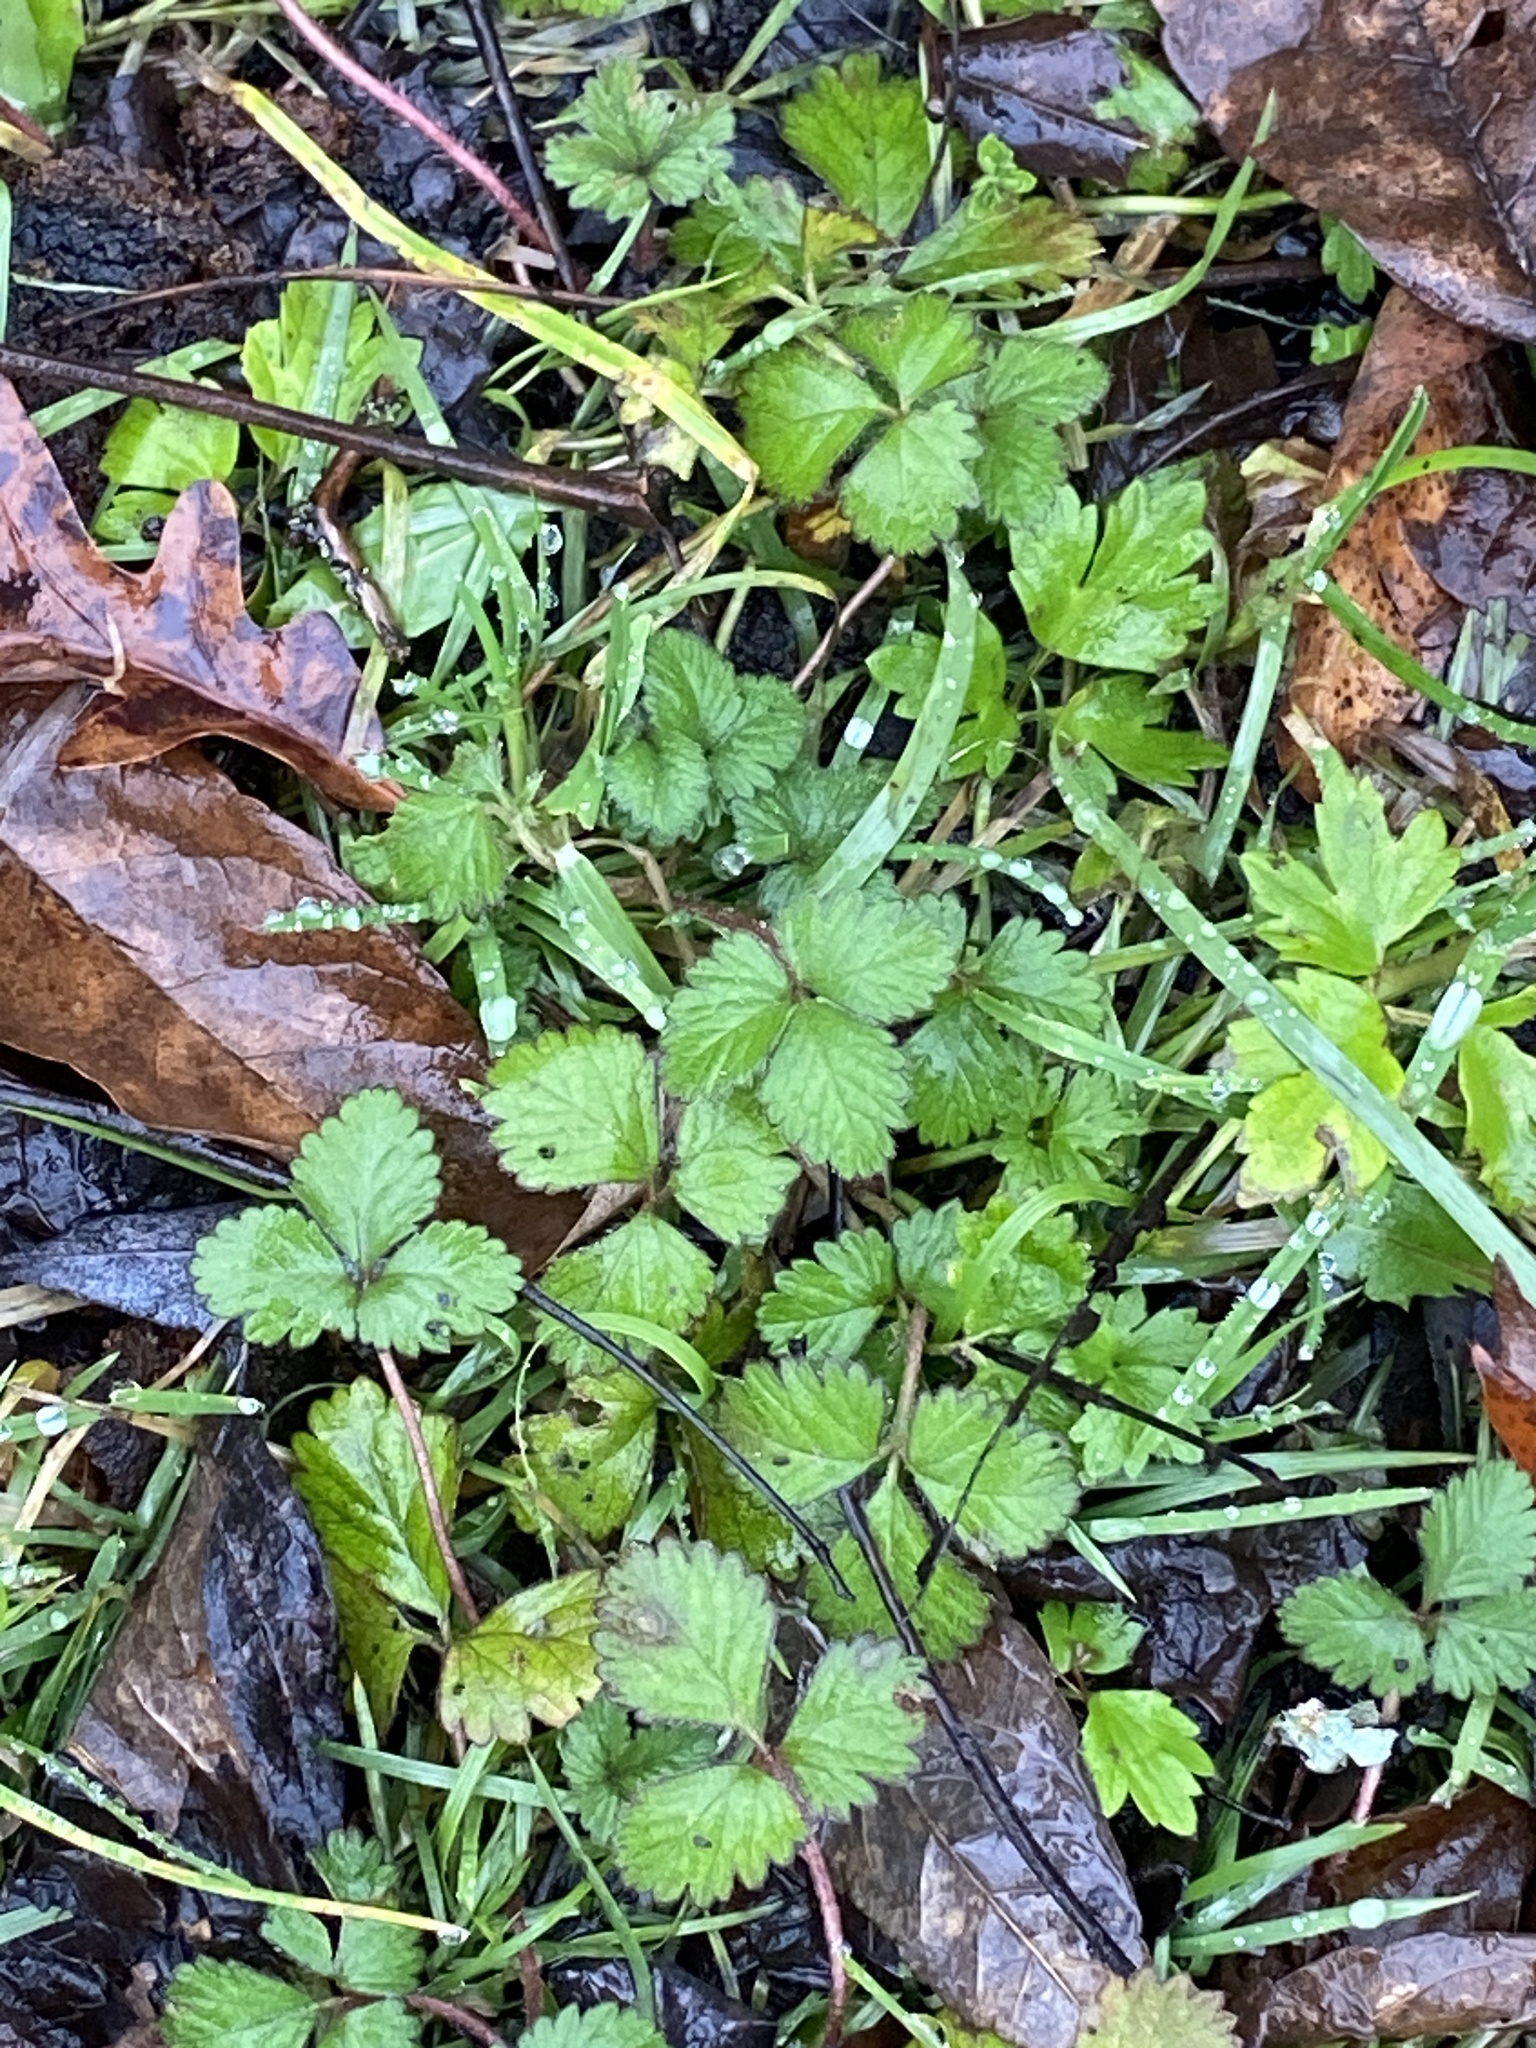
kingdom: Plantae
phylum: Tracheophyta
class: Magnoliopsida
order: Rosales
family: Rosaceae
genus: Potentilla
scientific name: Potentilla indica
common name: Yellow-flowered strawberry
